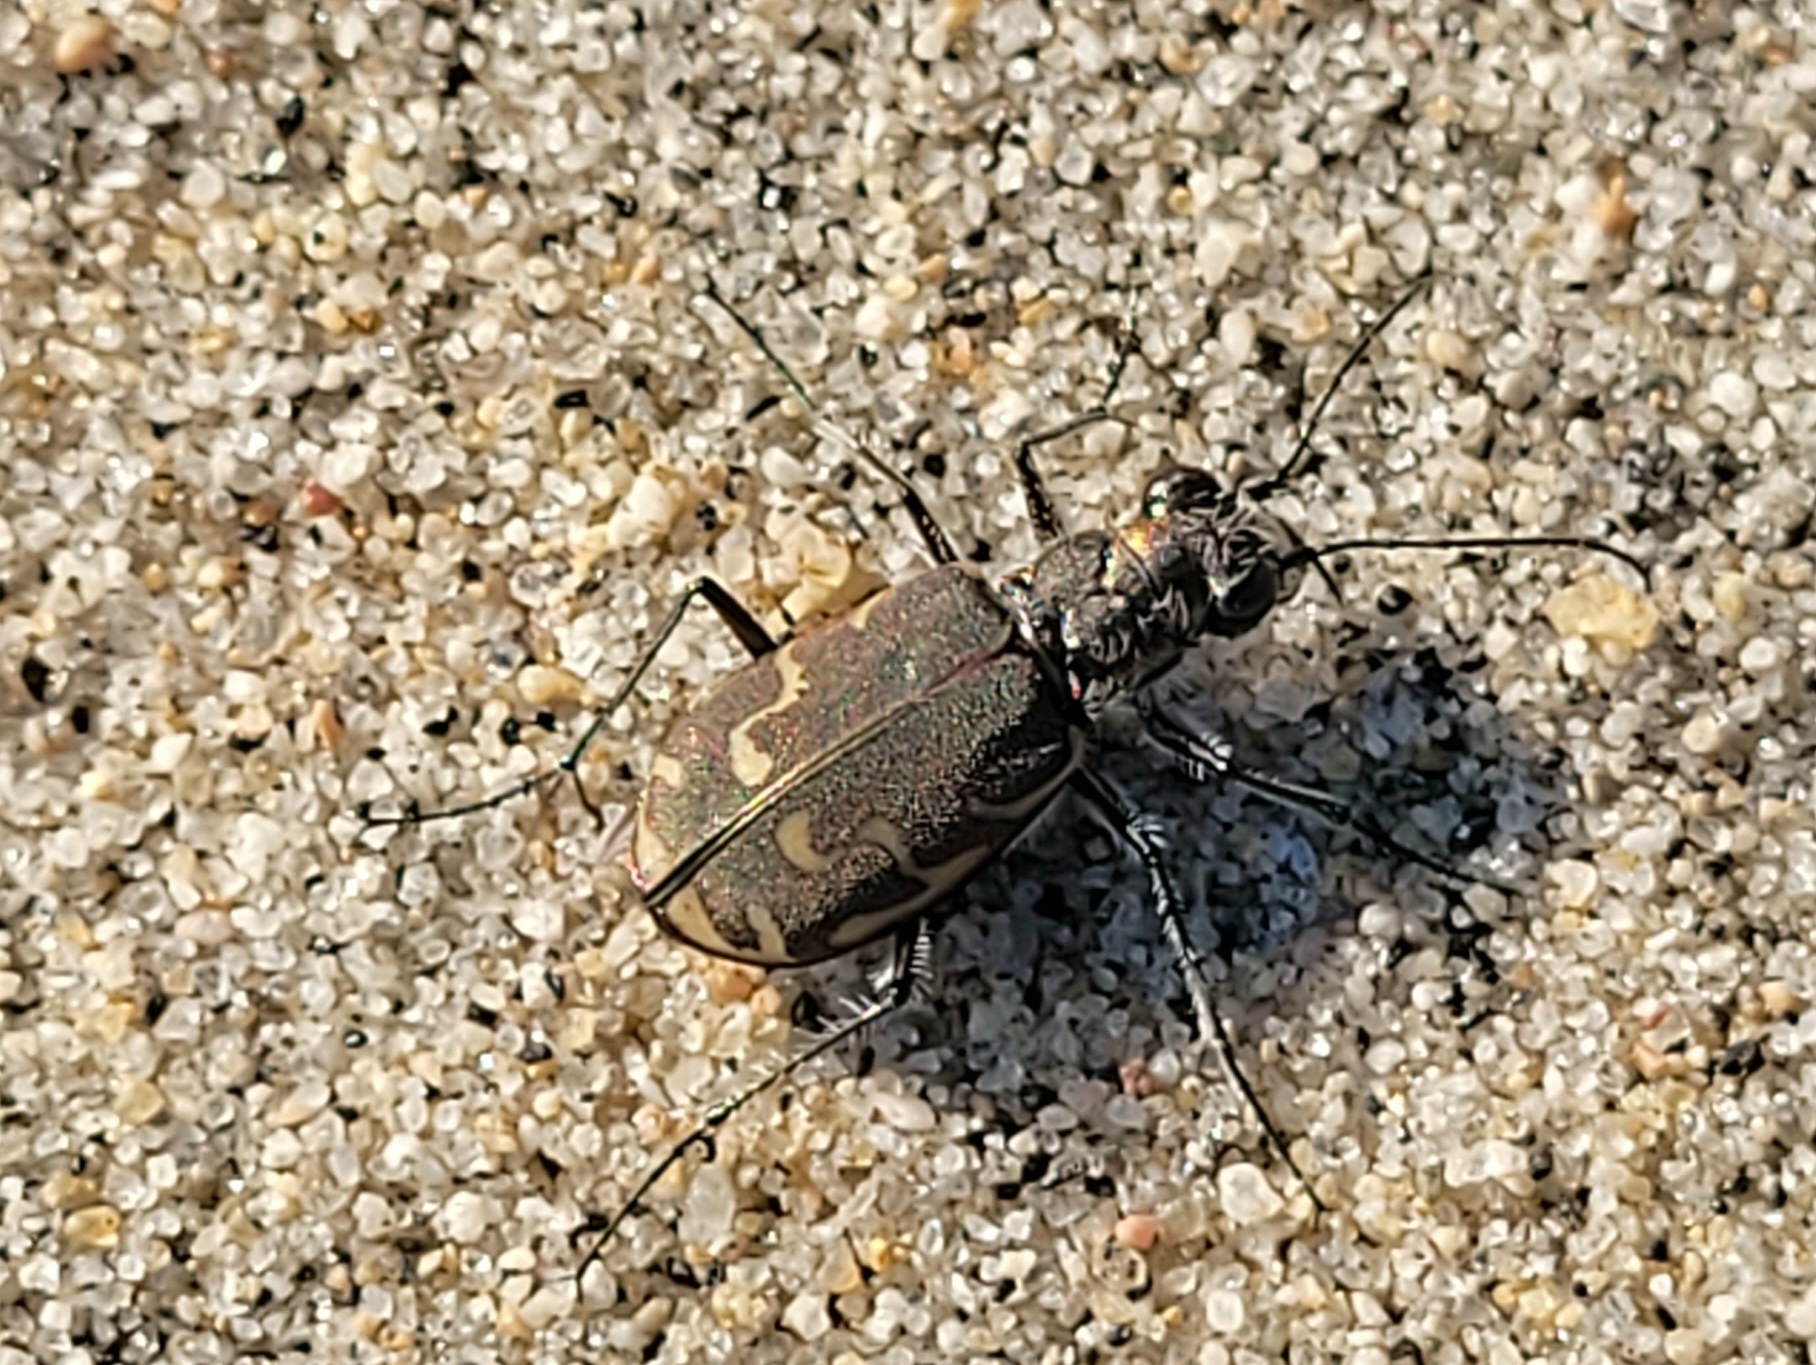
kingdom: Animalia
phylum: Arthropoda
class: Insecta
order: Coleoptera
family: Carabidae
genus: Cicindela
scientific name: Cicindela repanda
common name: Bronzed tiger beetle
